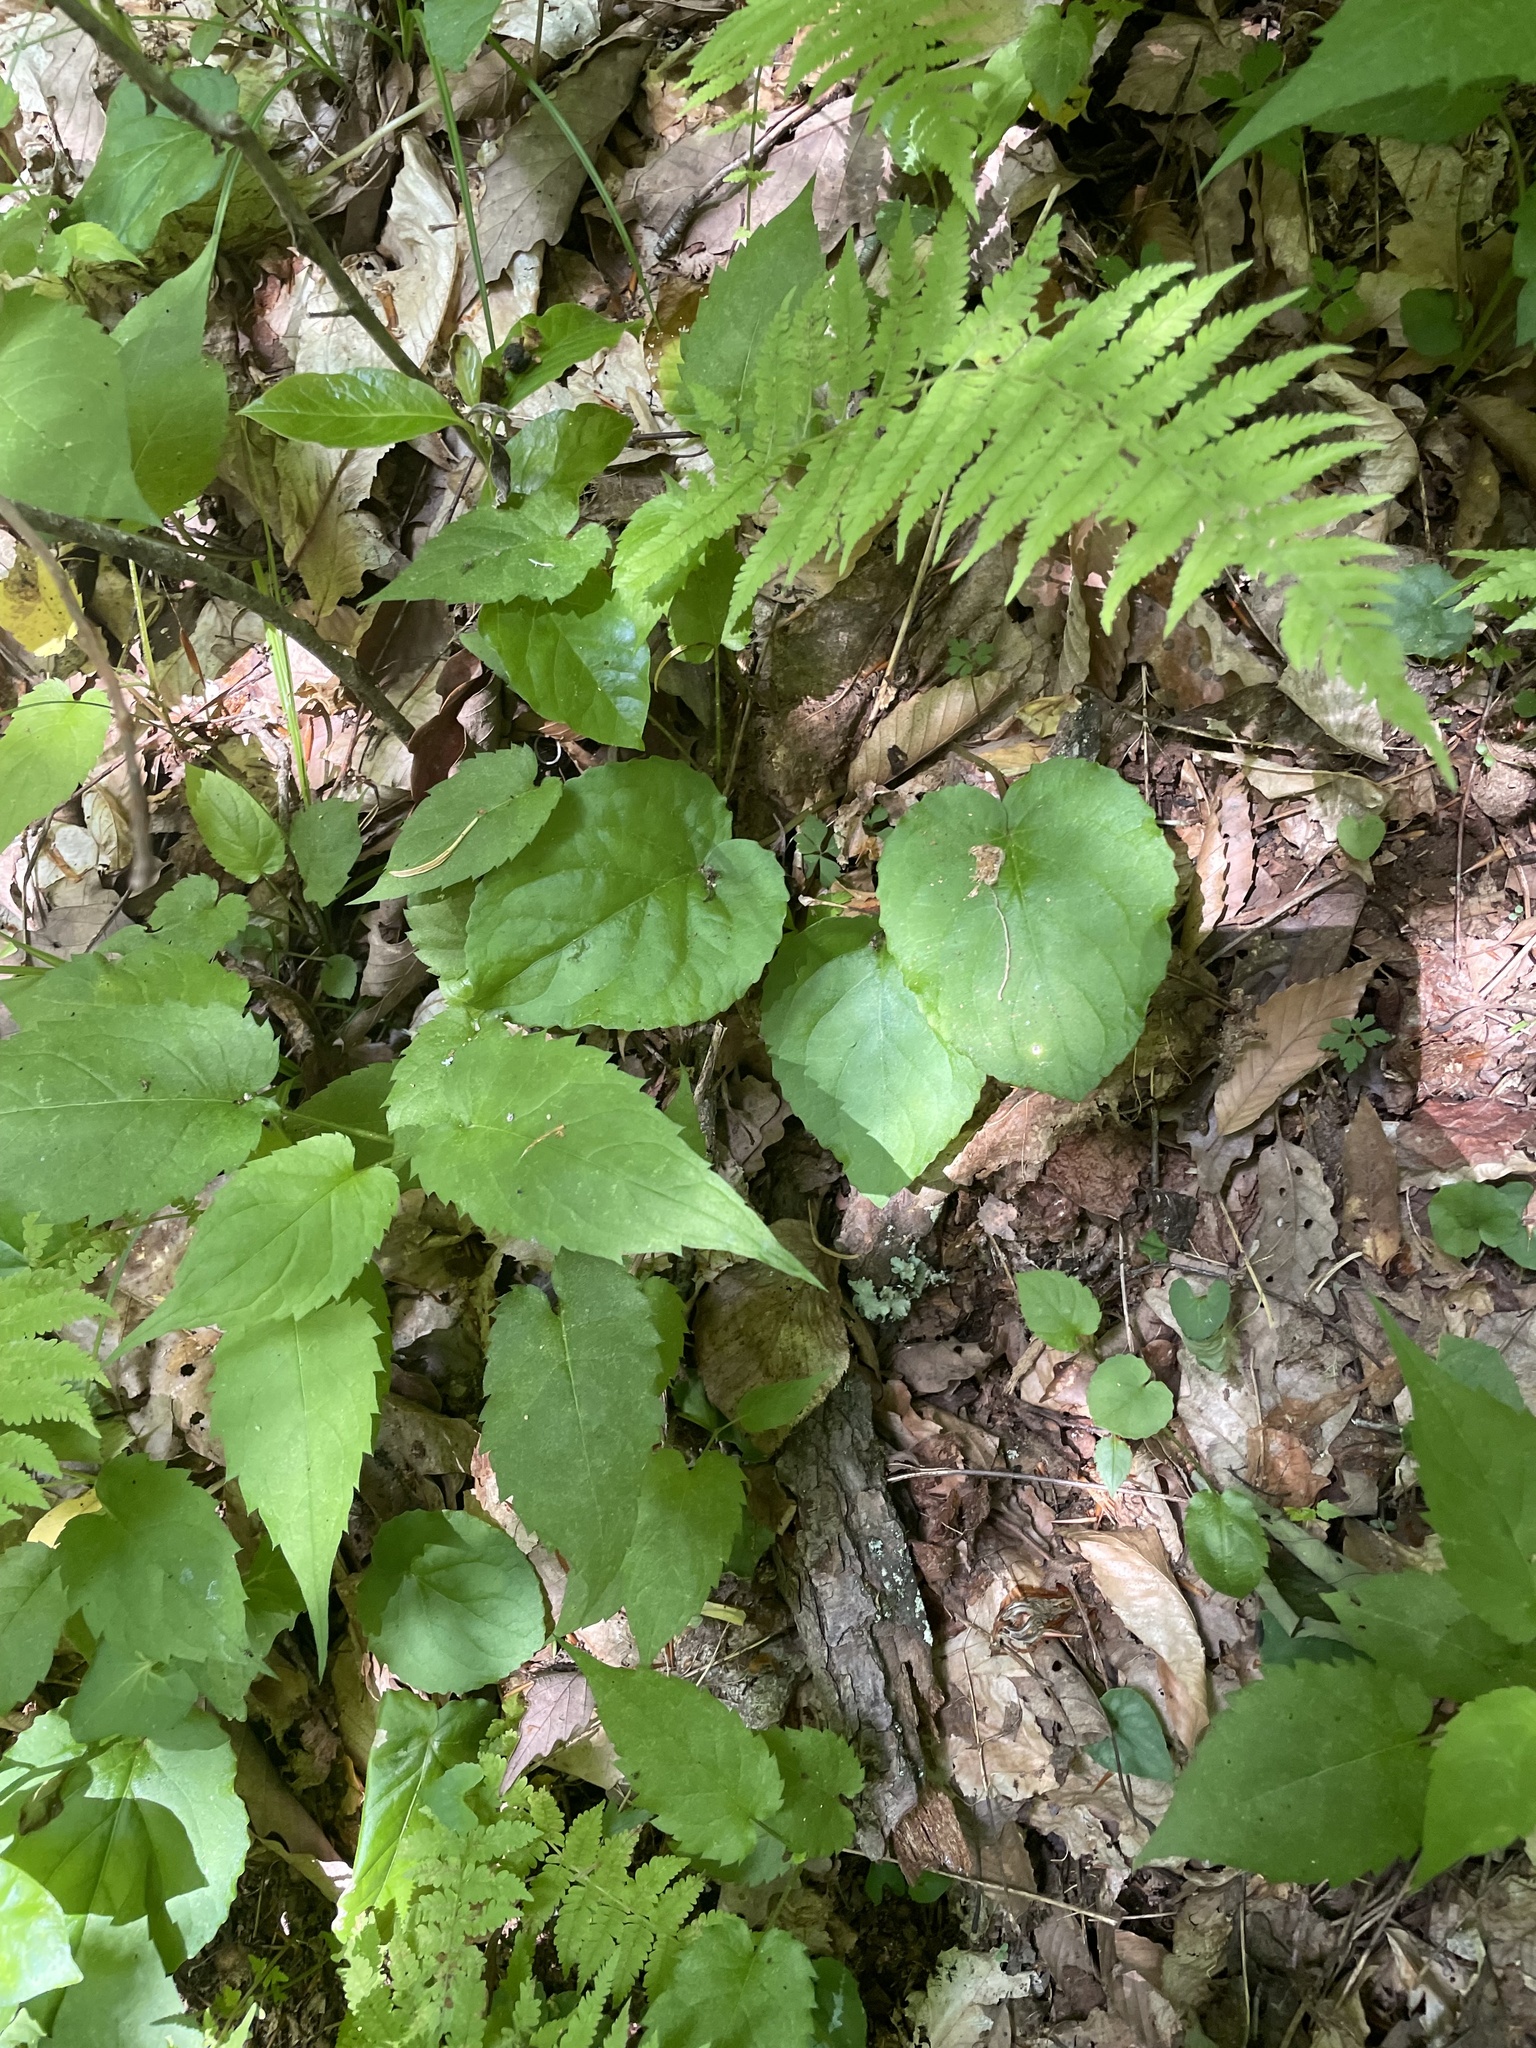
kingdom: Plantae
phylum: Tracheophyta
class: Magnoliopsida
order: Malpighiales
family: Violaceae
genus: Viola
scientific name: Viola rotundifolia
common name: Early yellow violet
